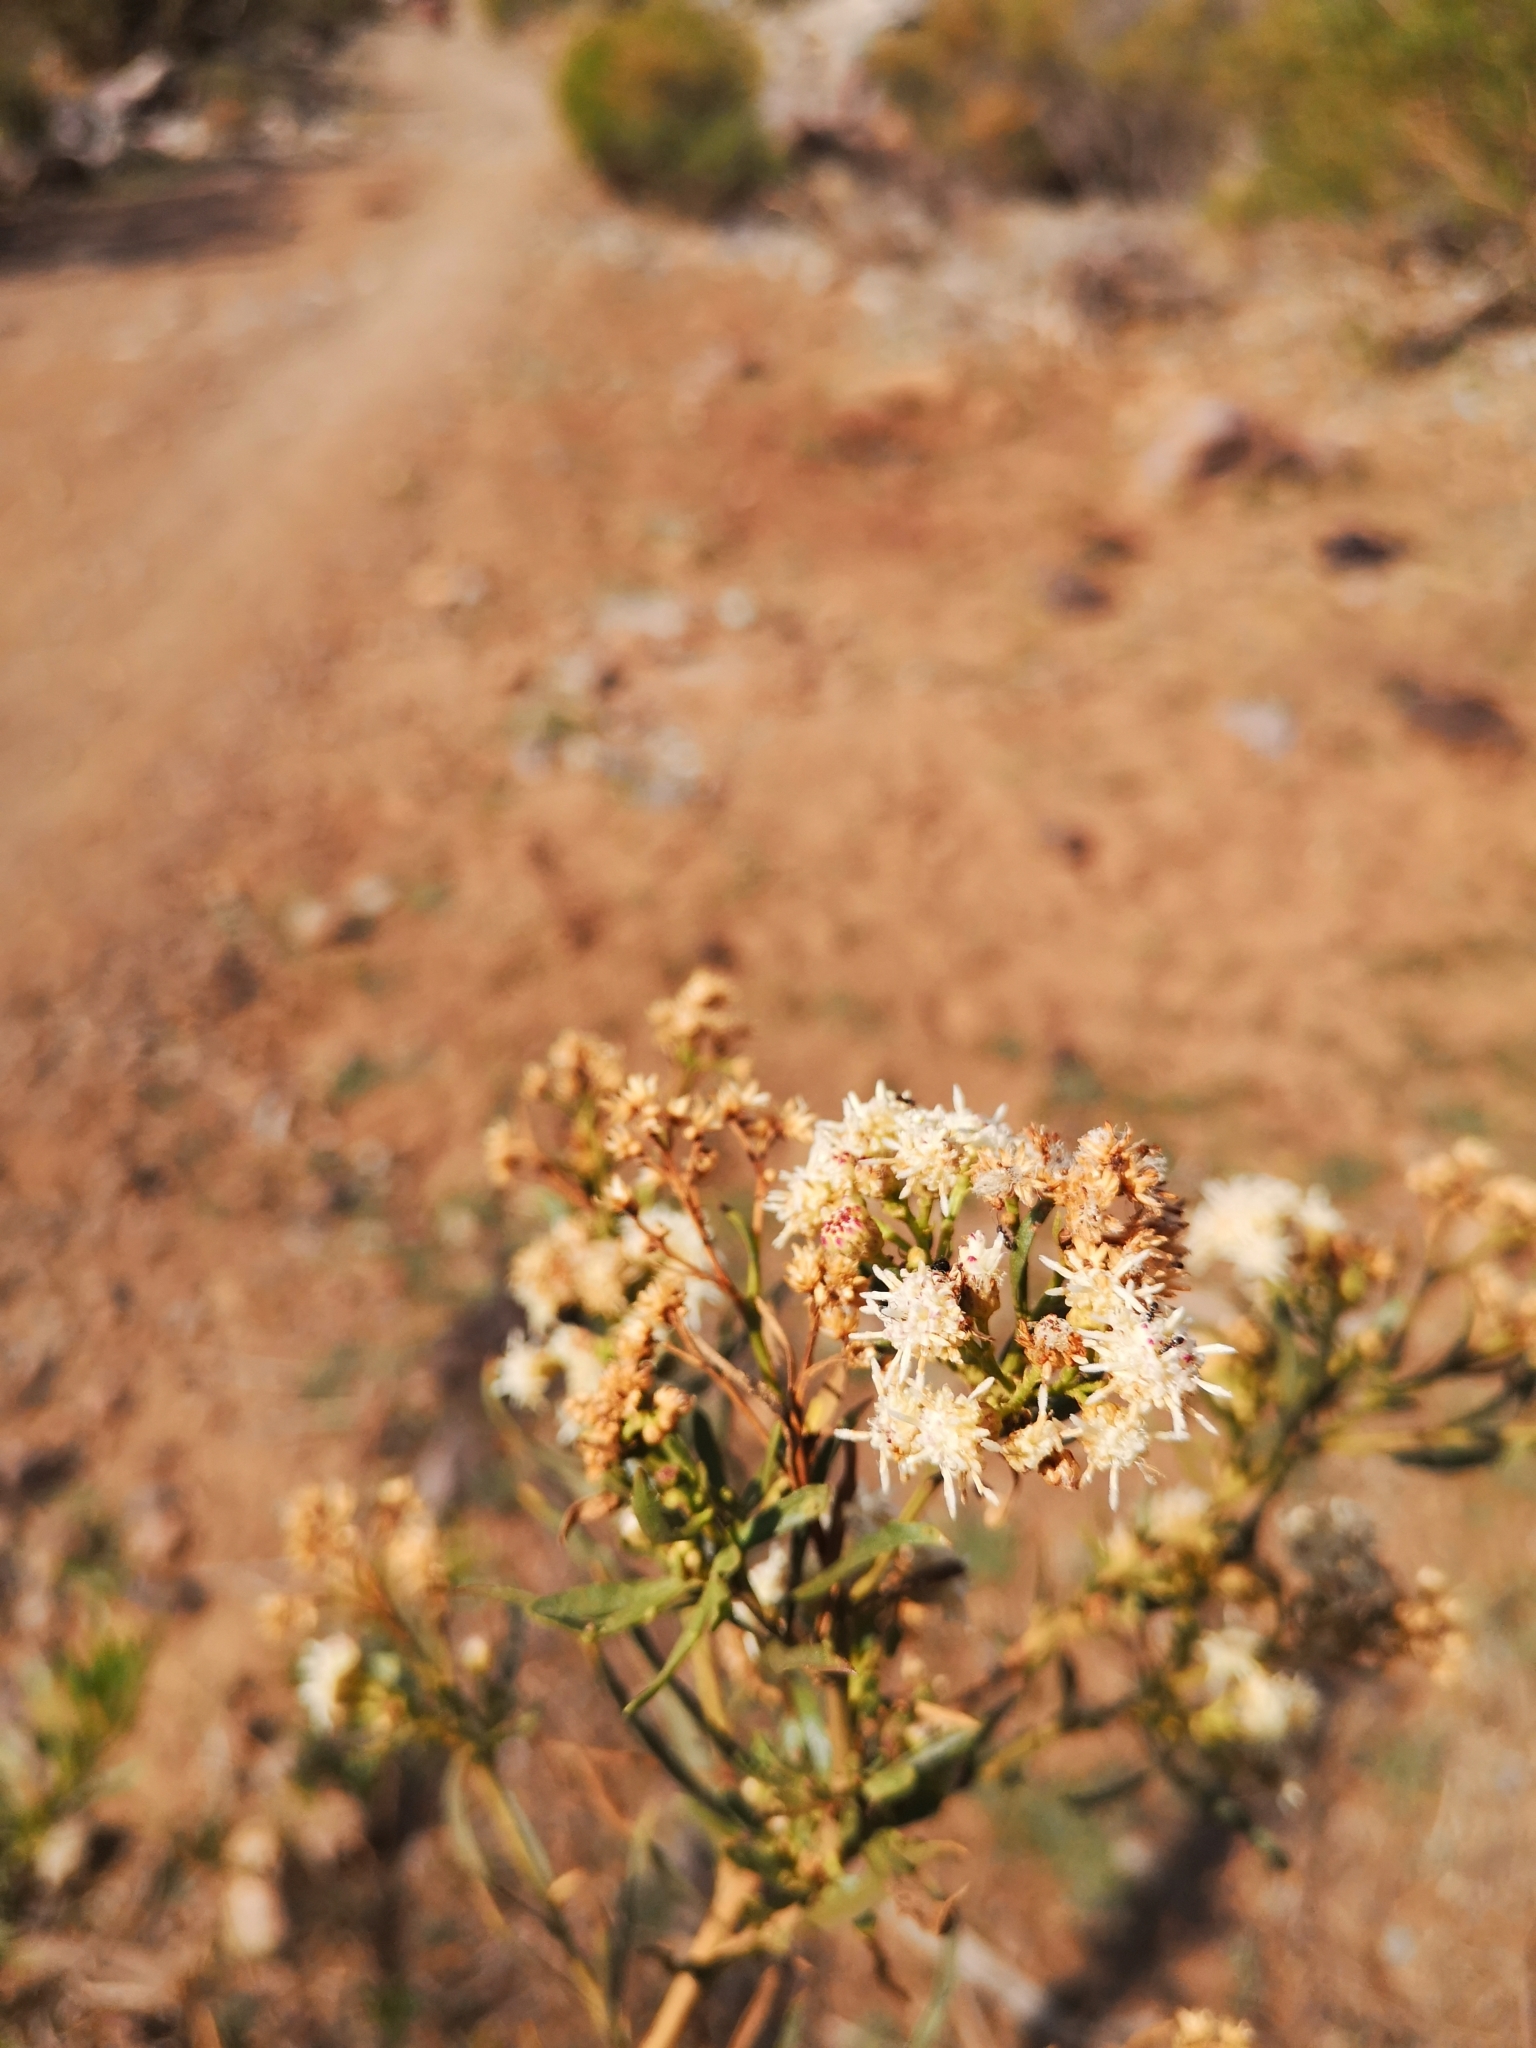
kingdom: Plantae
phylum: Tracheophyta
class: Magnoliopsida
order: Asterales
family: Asteraceae
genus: Baccharis
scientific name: Baccharis paniculata
